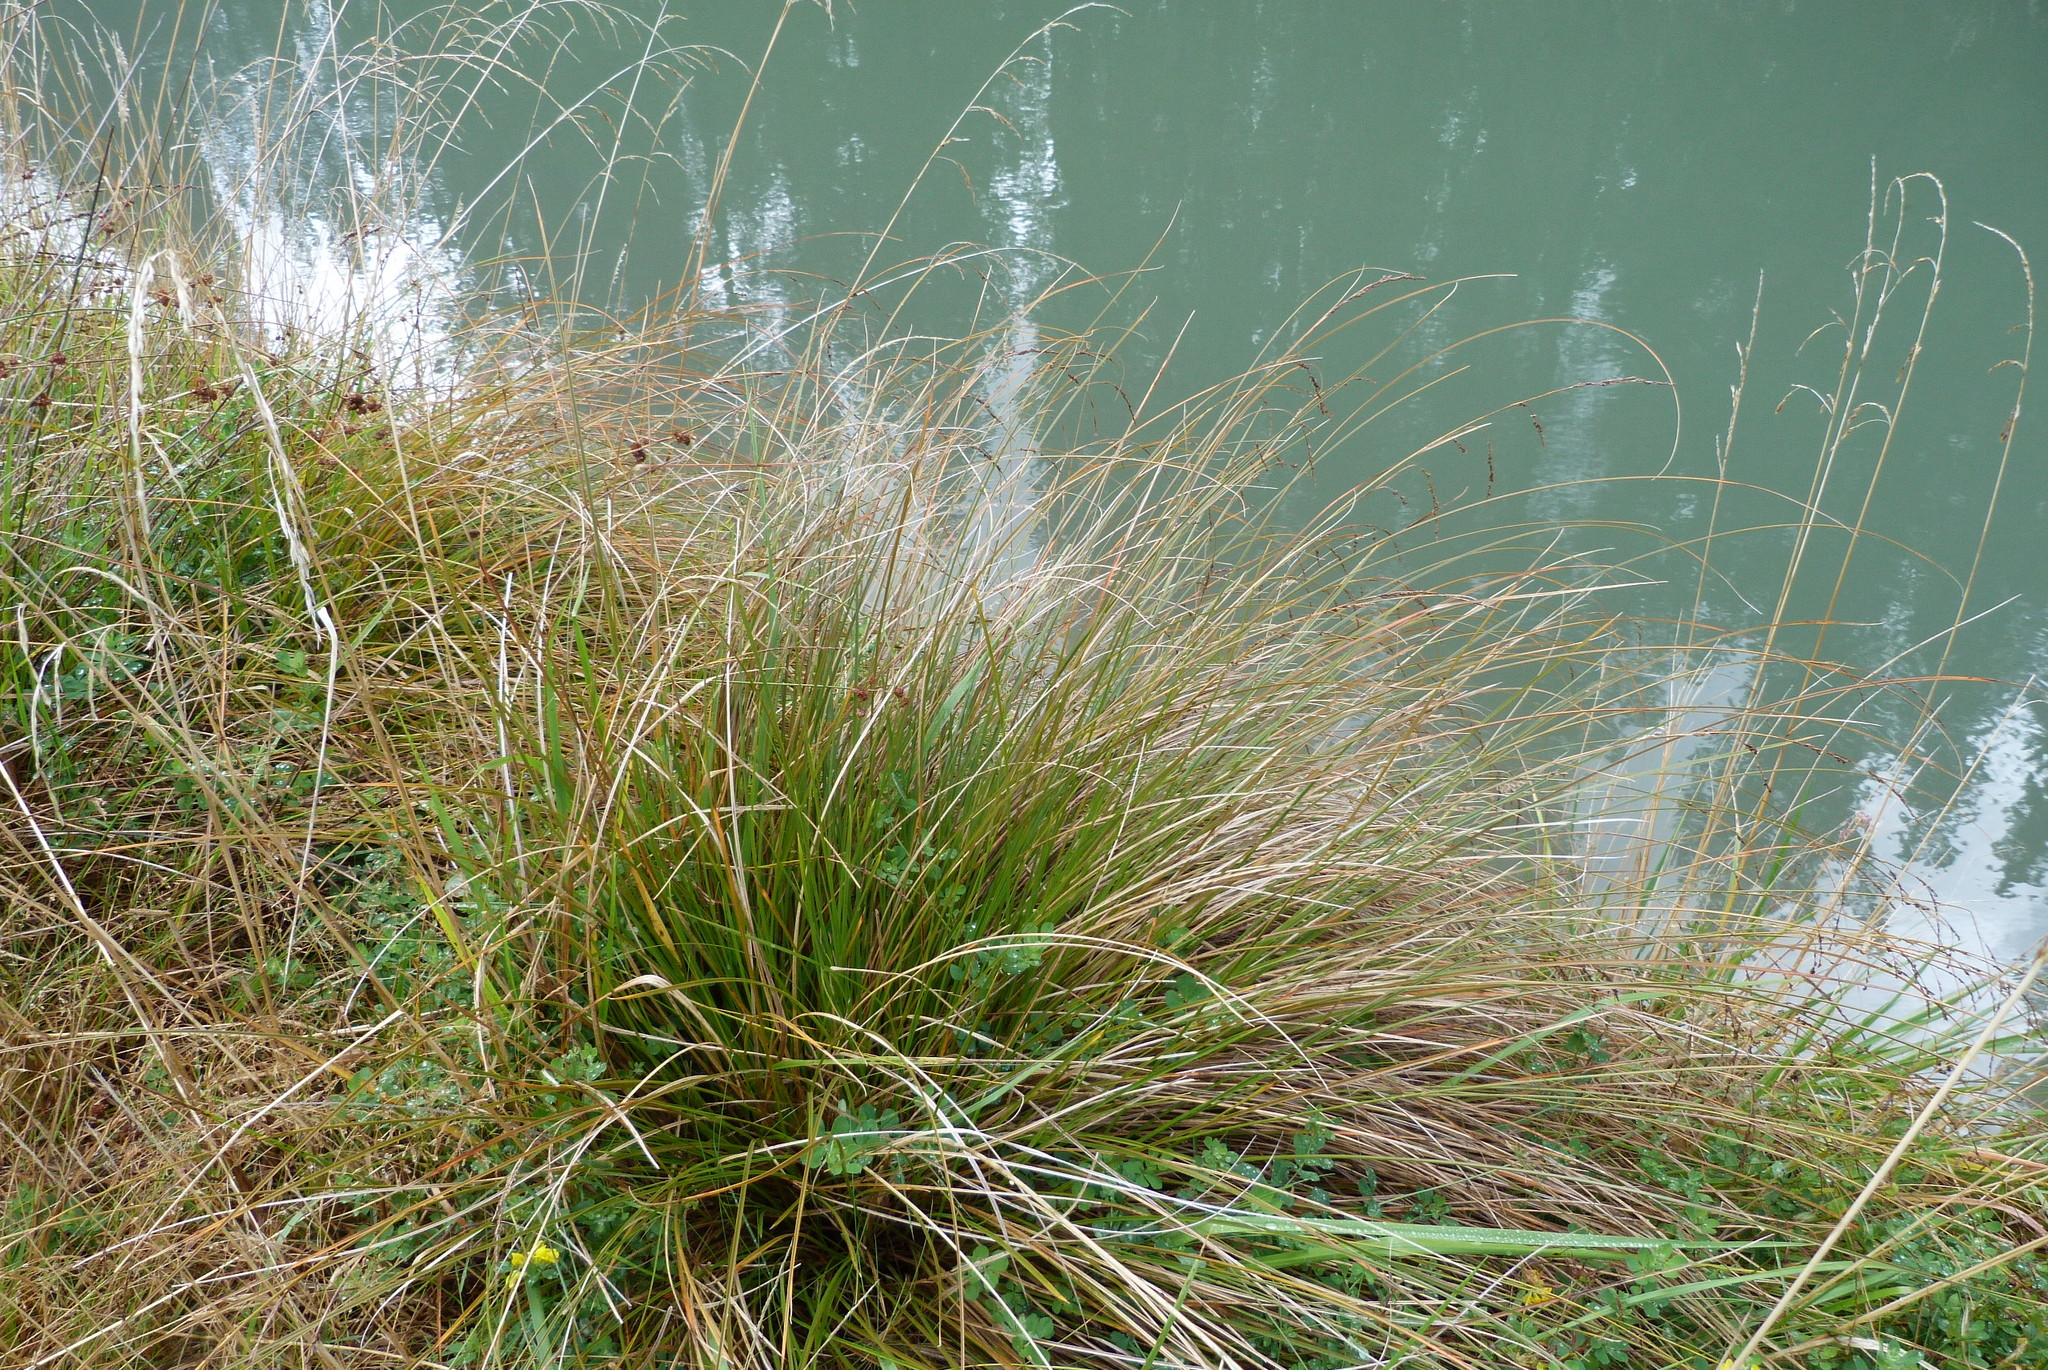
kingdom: Plantae
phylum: Tracheophyta
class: Liliopsida
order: Poales
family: Cyperaceae
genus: Carex
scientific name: Carex secta
